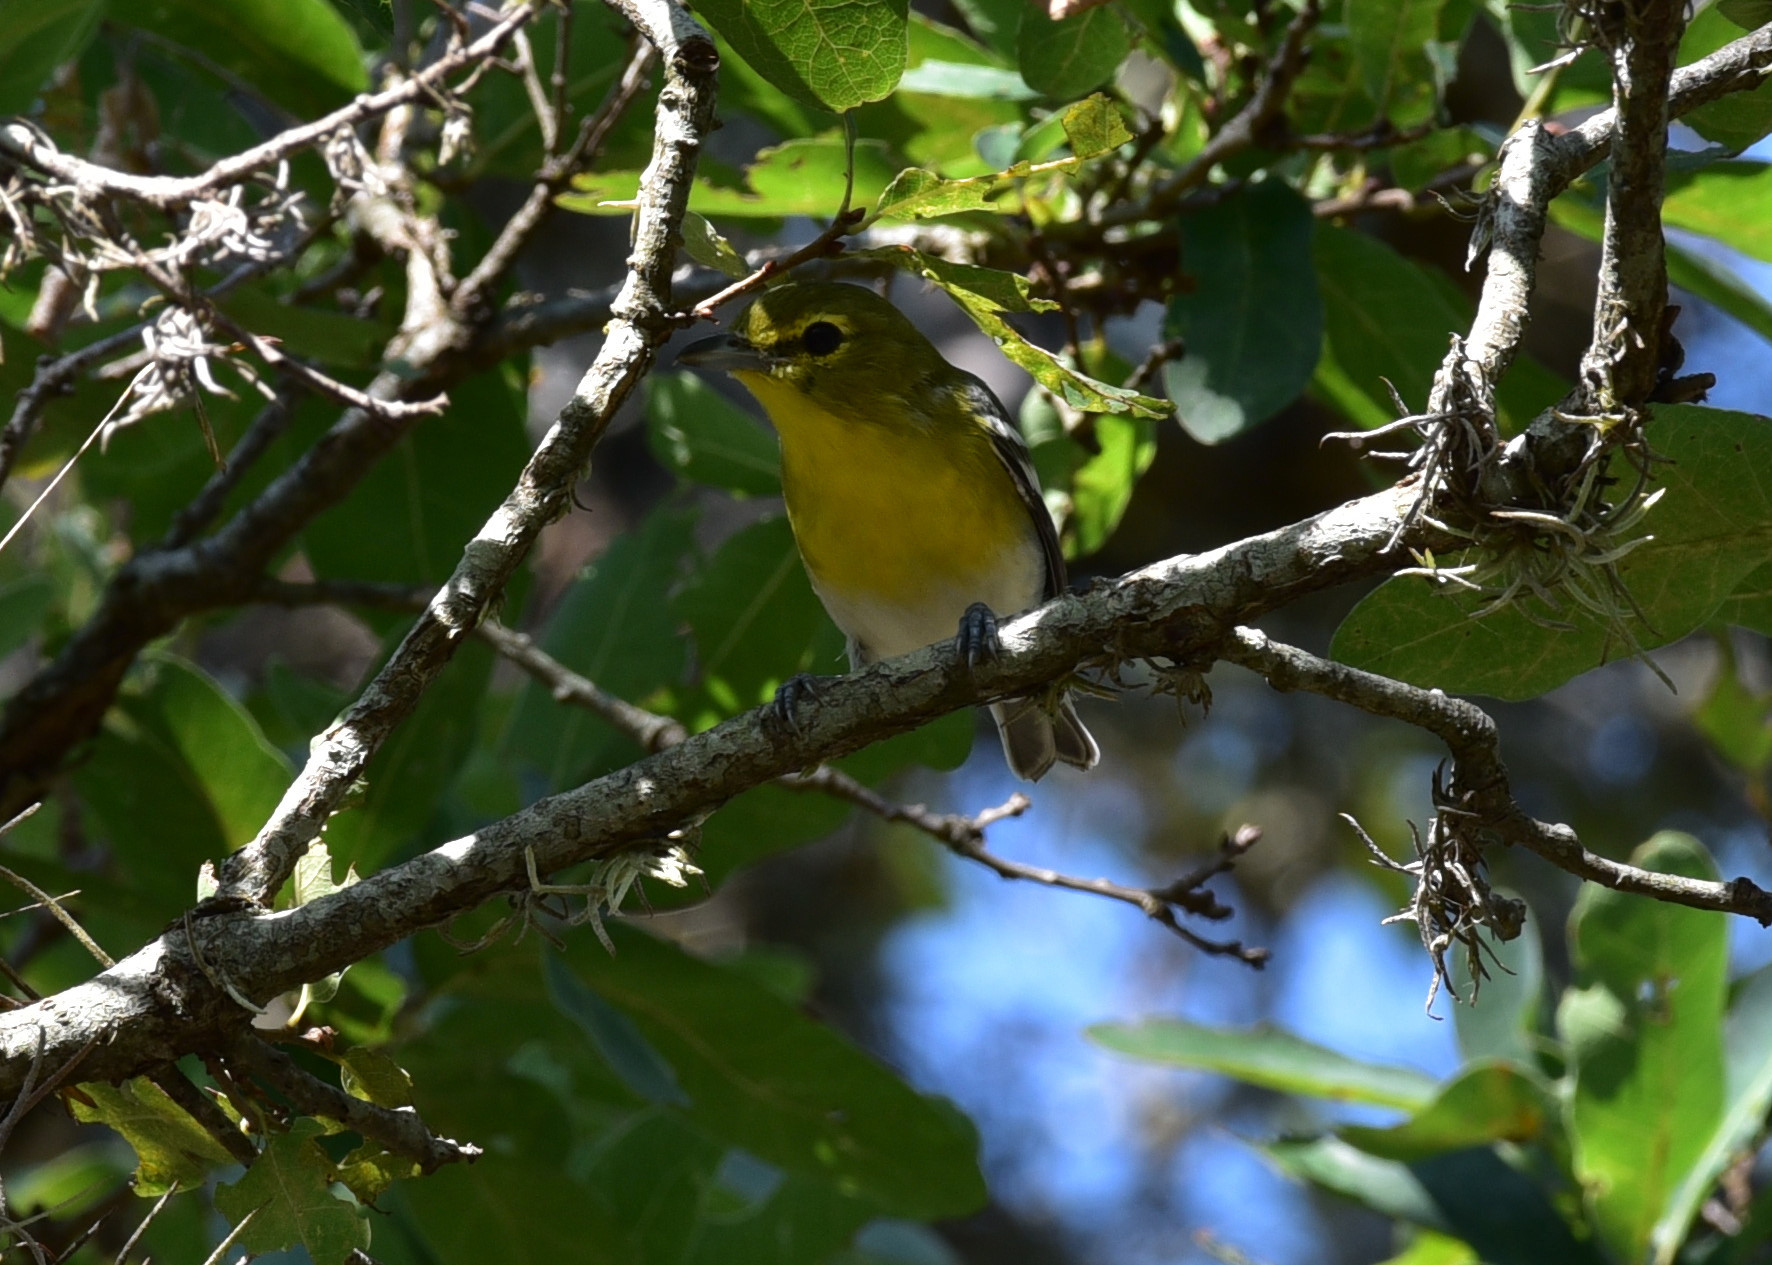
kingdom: Animalia
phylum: Chordata
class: Aves
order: Passeriformes
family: Vireonidae
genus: Vireo
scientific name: Vireo flavifrons
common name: Yellow-throated vireo
